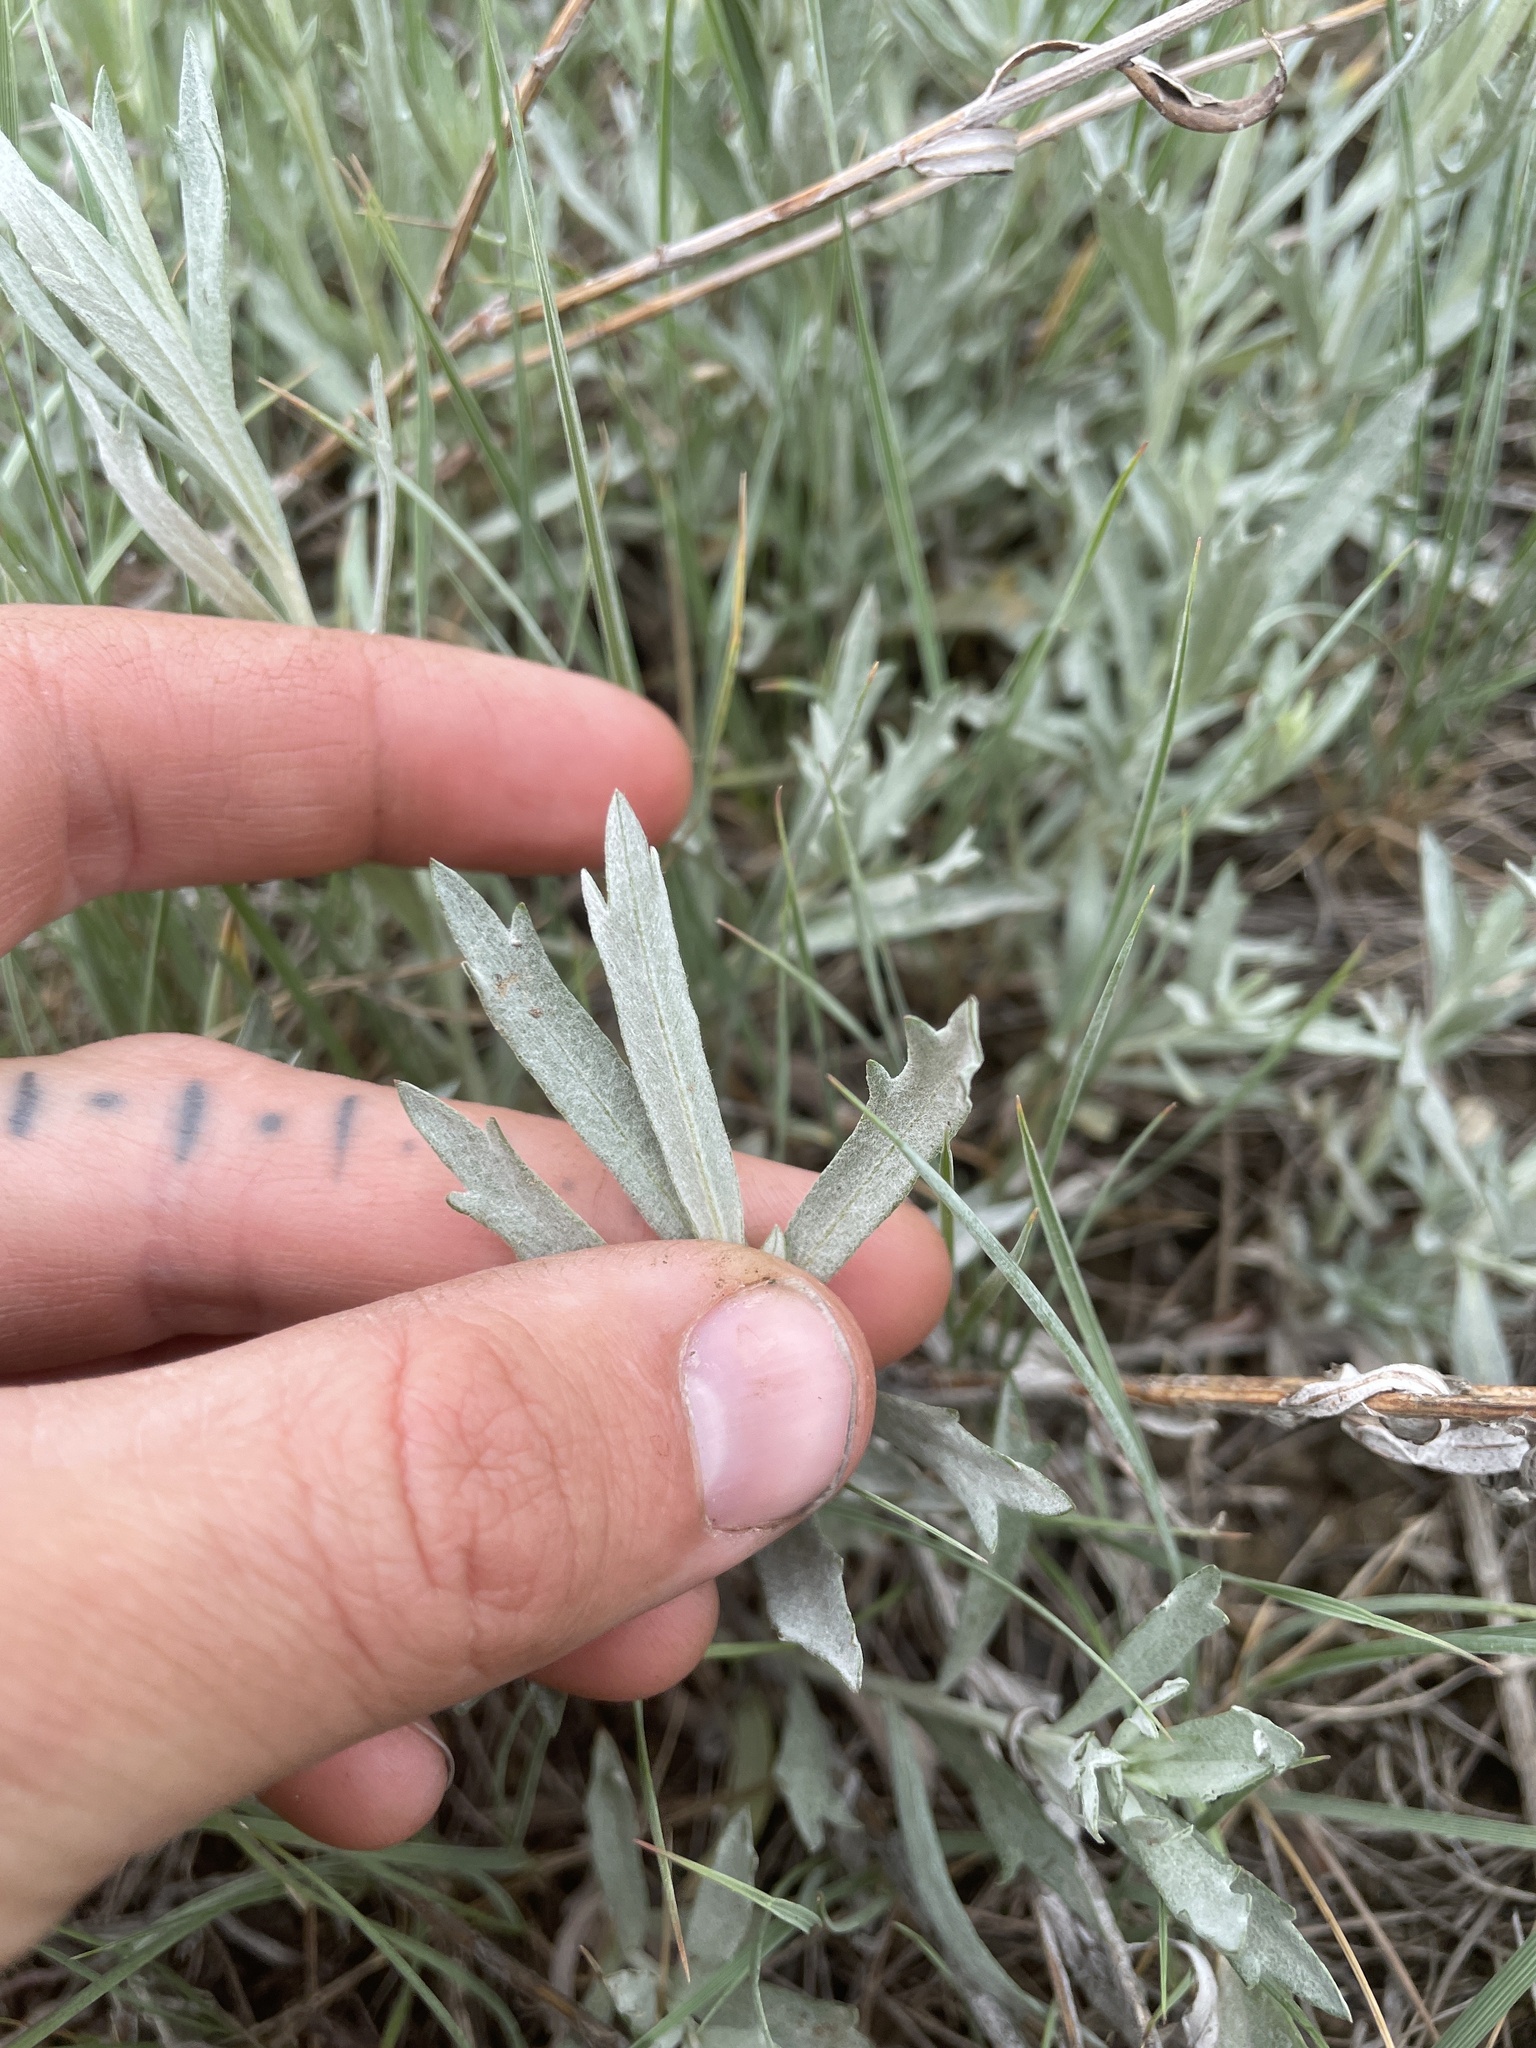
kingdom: Plantae
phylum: Tracheophyta
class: Magnoliopsida
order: Asterales
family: Asteraceae
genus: Artemisia
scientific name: Artemisia ludoviciana
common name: Western mugwort
